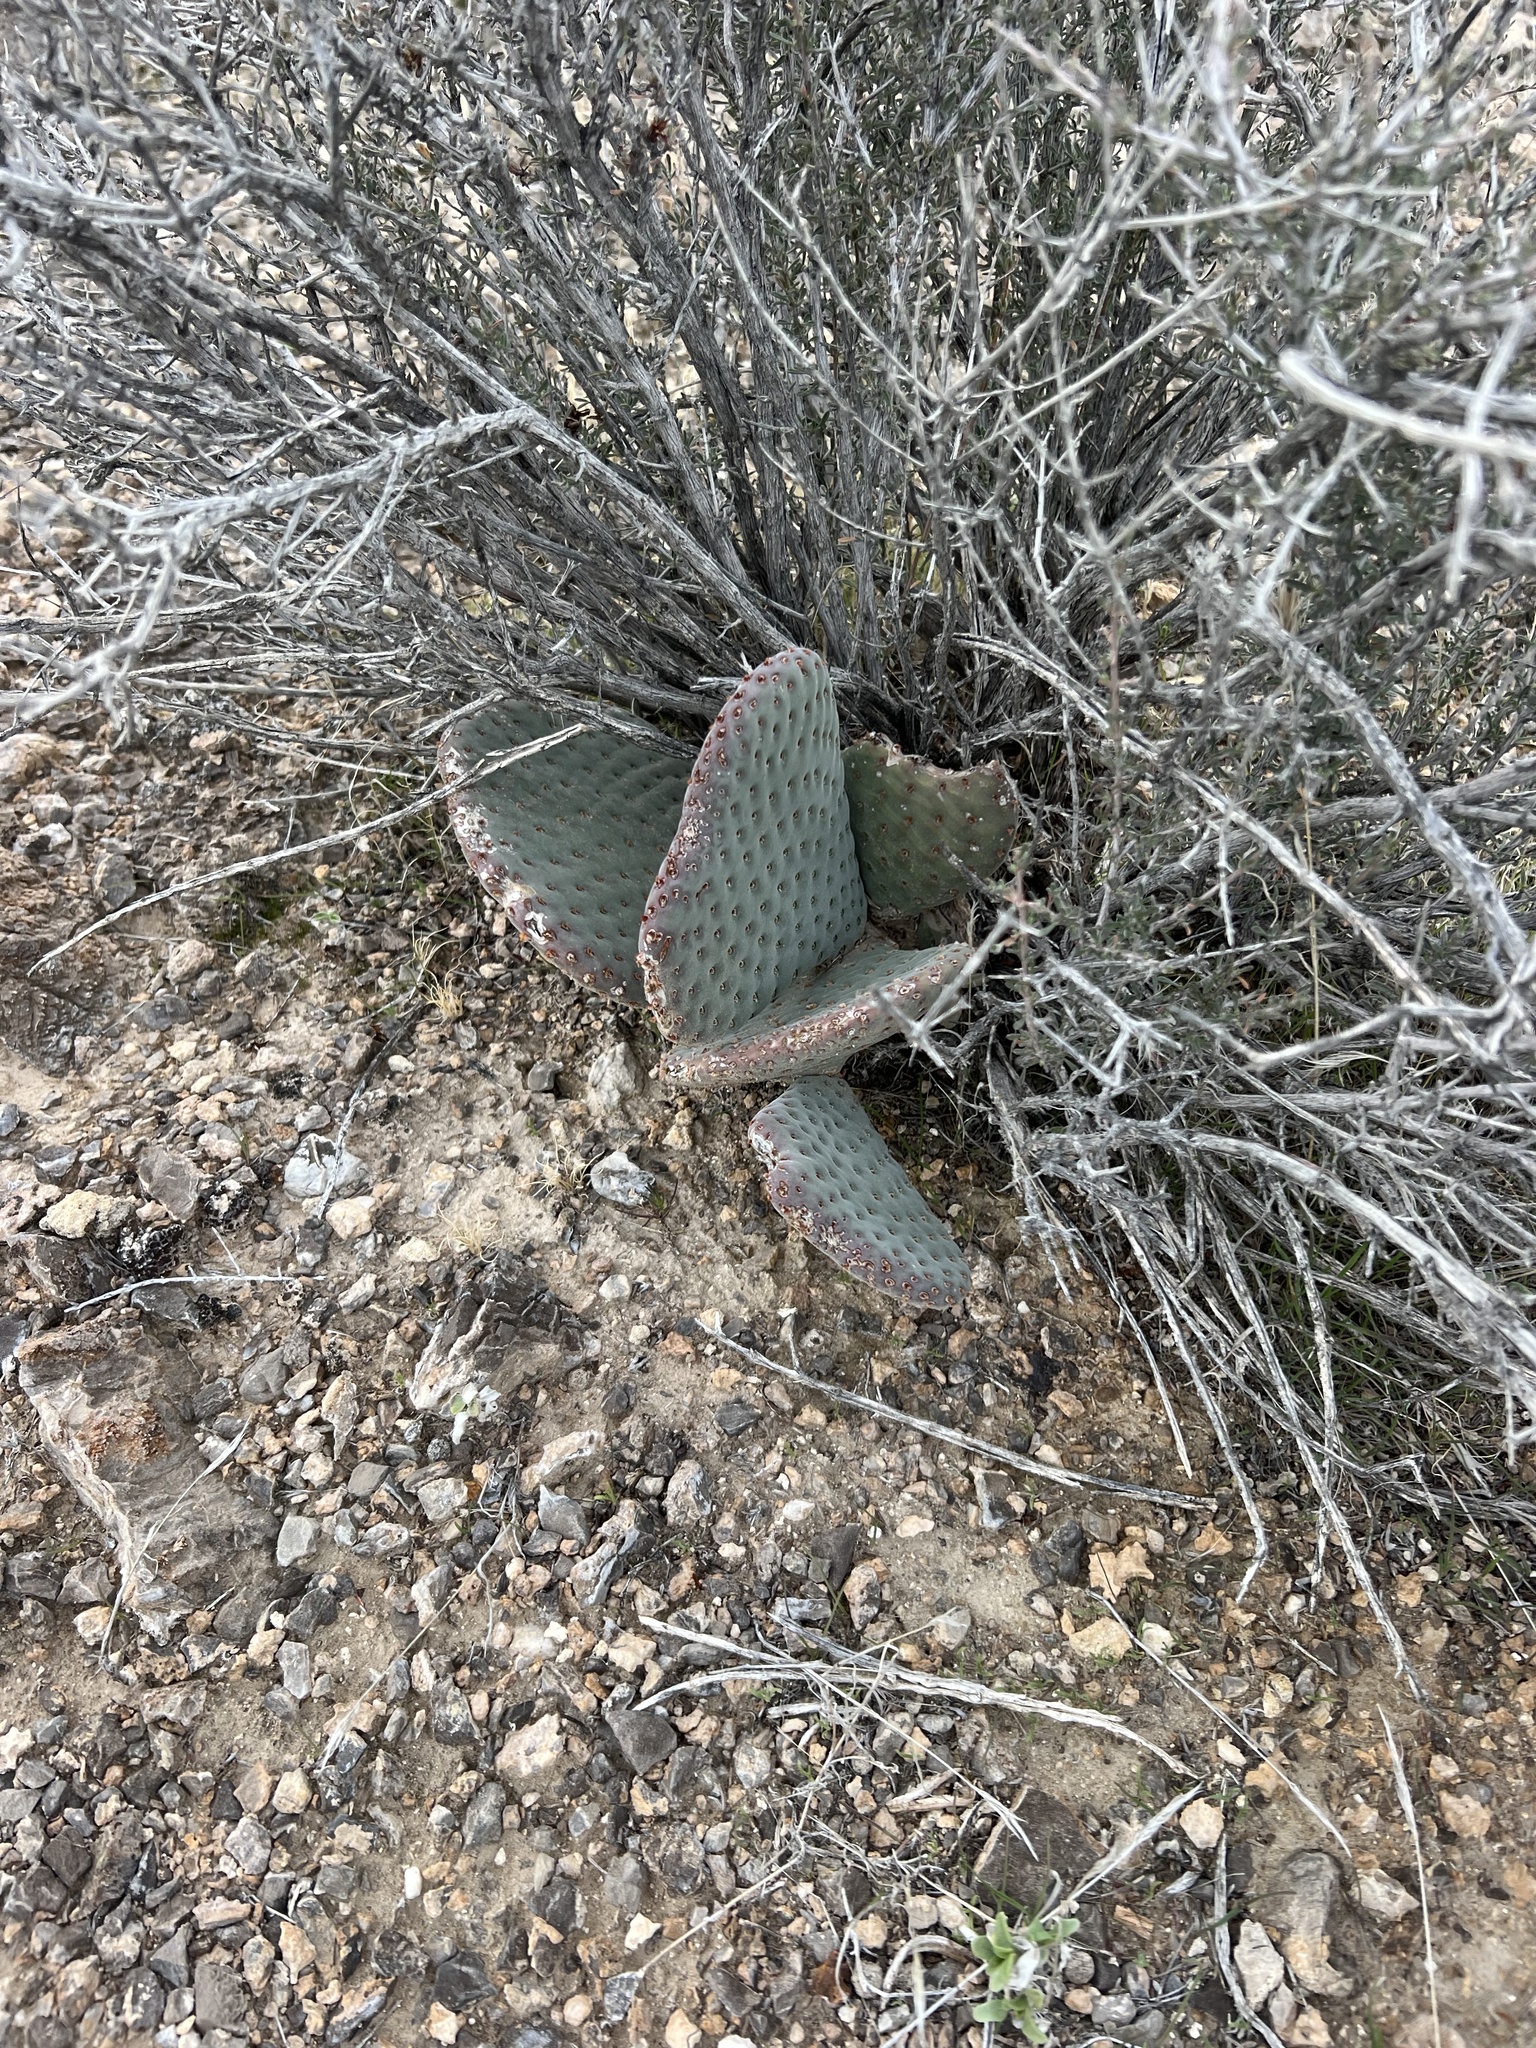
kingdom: Plantae
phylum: Tracheophyta
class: Magnoliopsida
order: Caryophyllales
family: Cactaceae
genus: Opuntia
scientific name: Opuntia basilaris
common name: Beavertail prickly-pear
